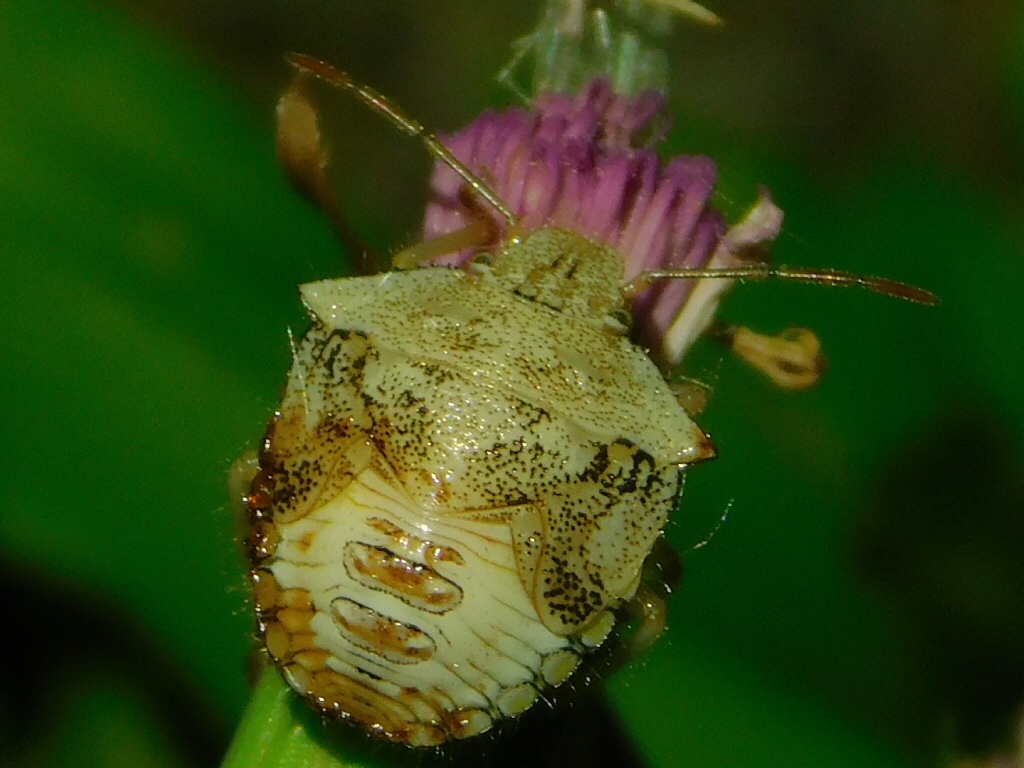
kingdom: Animalia
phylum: Arthropoda
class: Insecta
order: Hemiptera
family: Pentatomidae
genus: Thyanta
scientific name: Thyanta perditor
